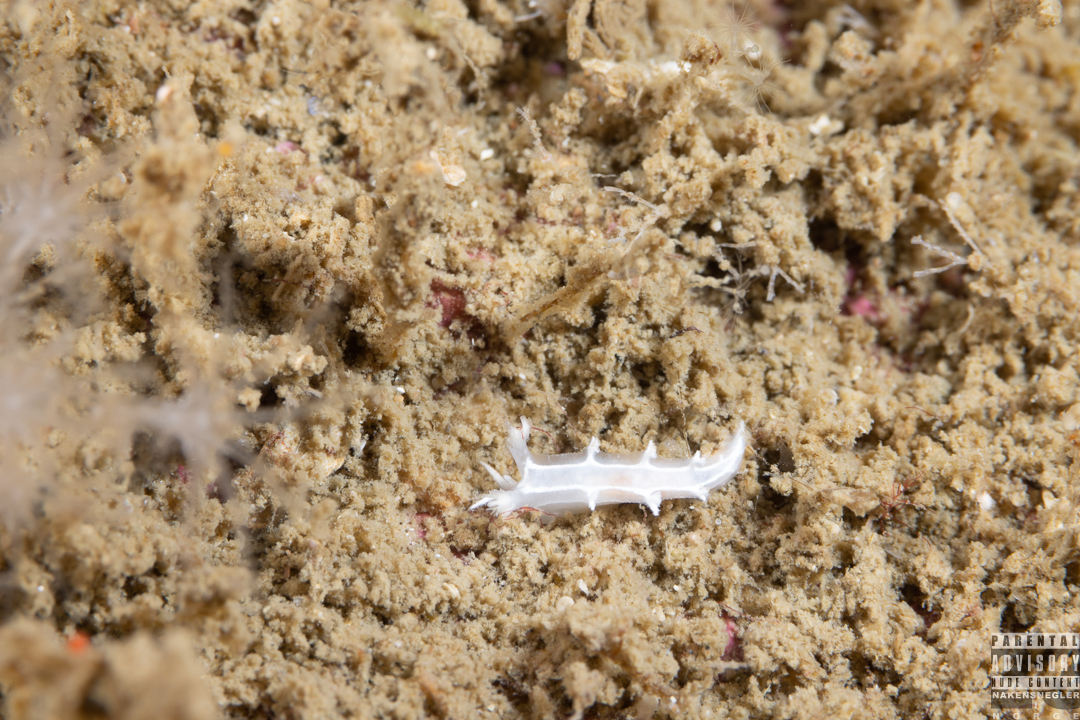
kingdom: Animalia
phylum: Mollusca
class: Gastropoda
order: Nudibranchia
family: Tritoniidae
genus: Duvaucelia
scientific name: Duvaucelia lineata
